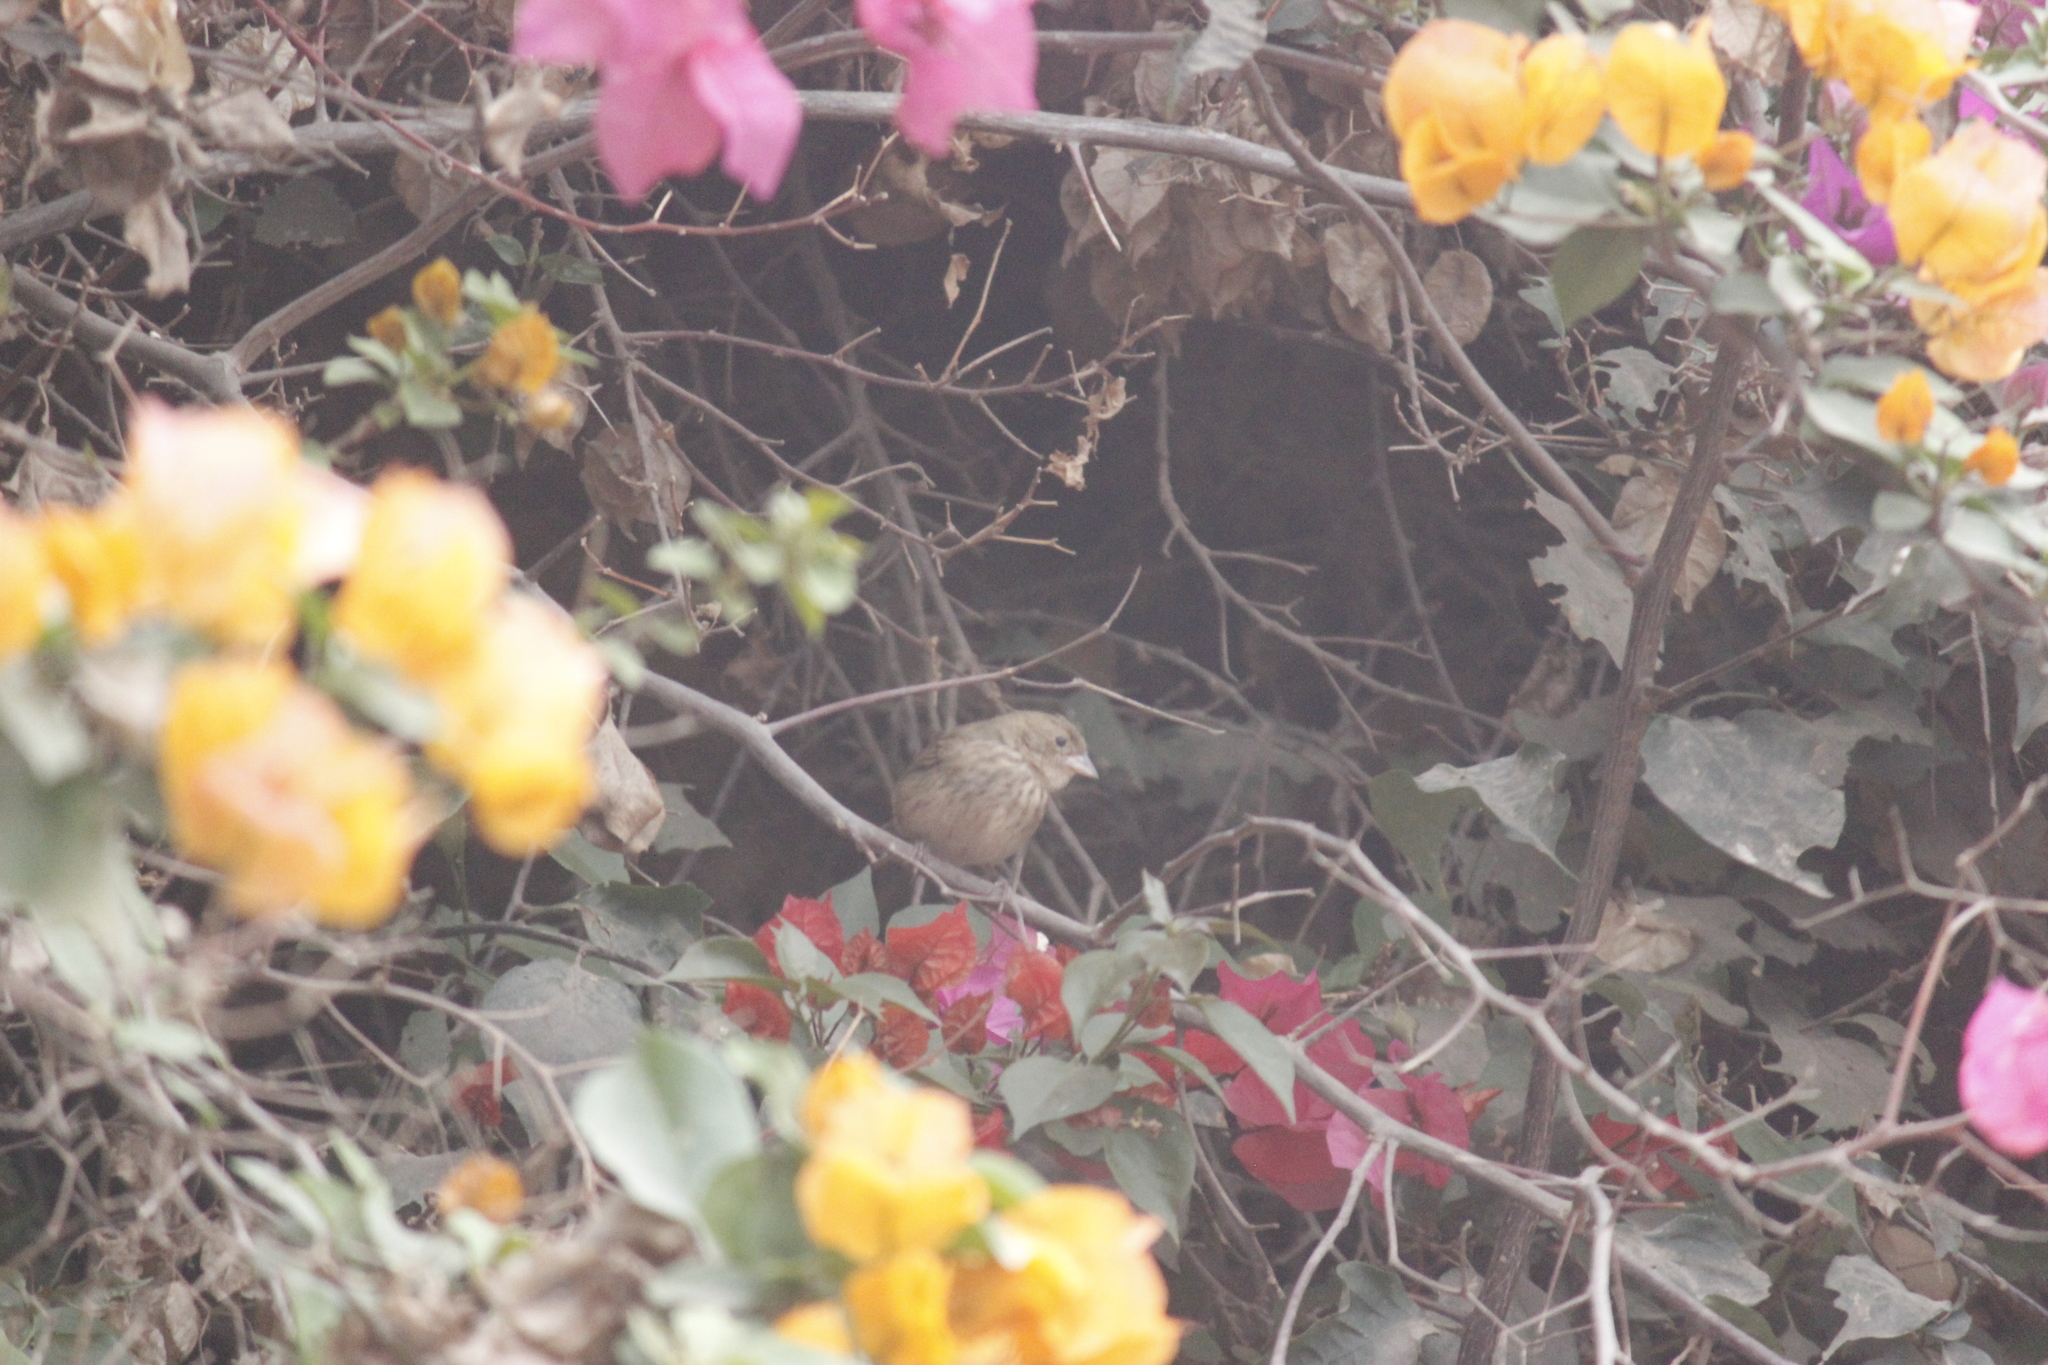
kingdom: Animalia
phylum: Chordata
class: Aves
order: Passeriformes
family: Thraupidae
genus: Volatinia
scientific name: Volatinia jacarina
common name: Blue-black grassquit
